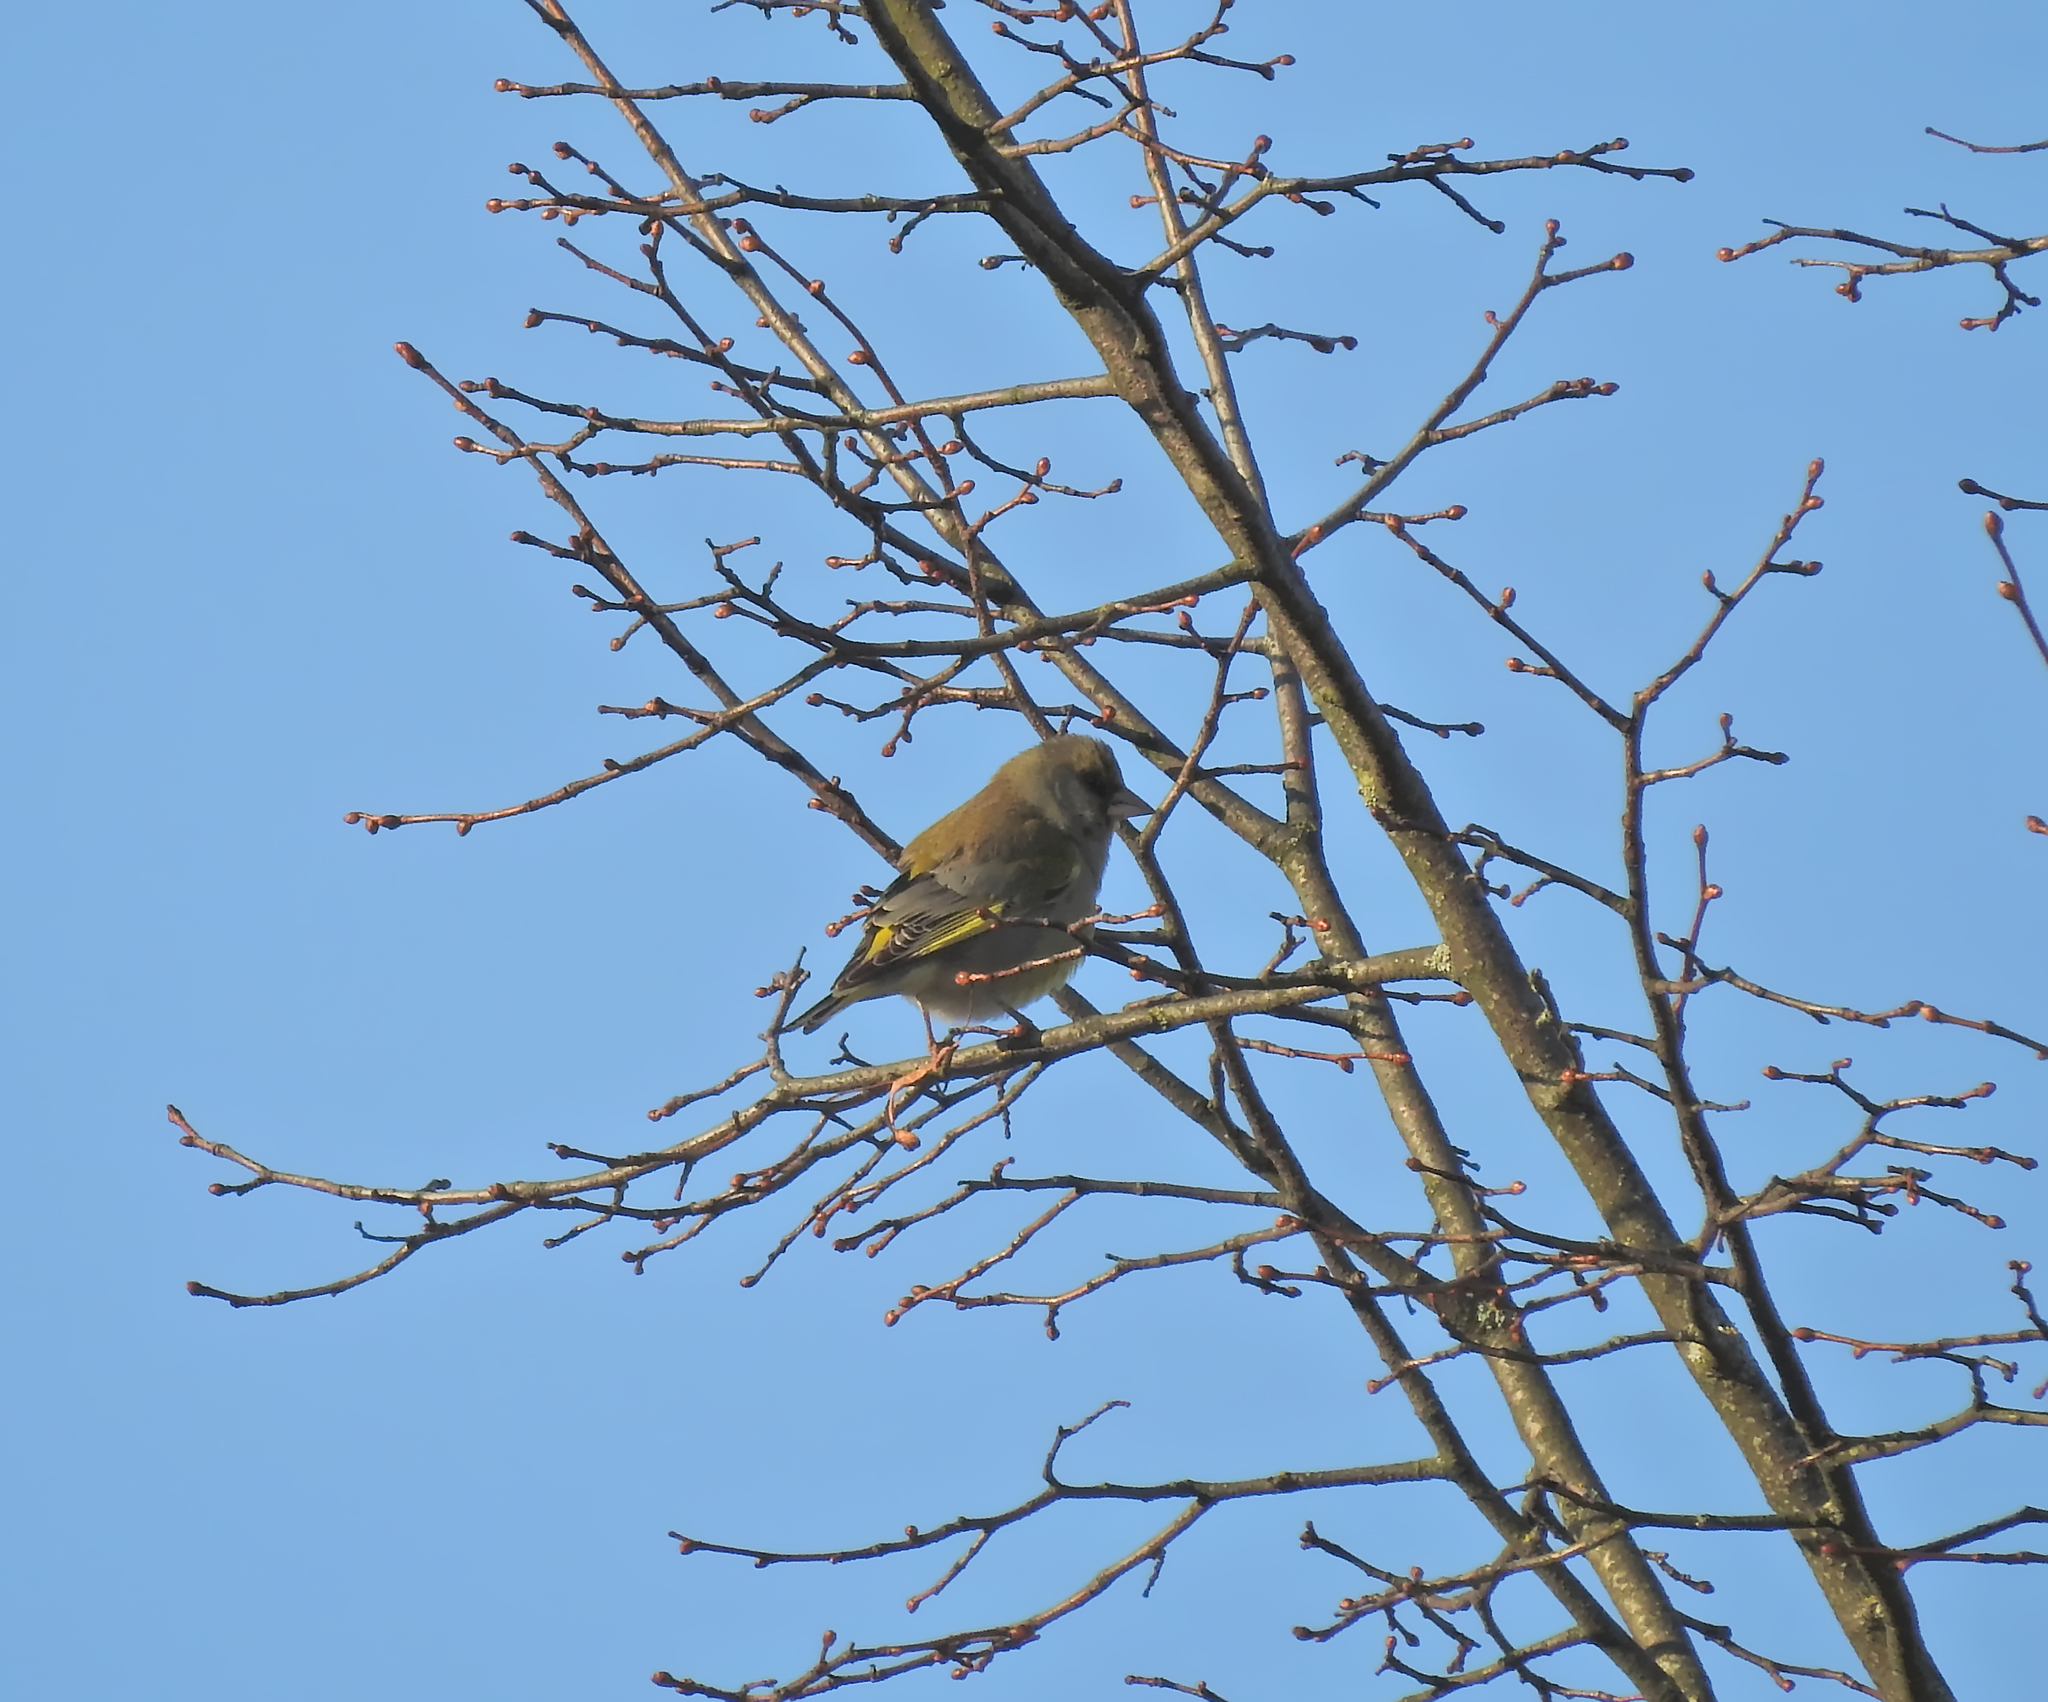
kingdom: Plantae
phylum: Tracheophyta
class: Liliopsida
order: Poales
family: Poaceae
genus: Chloris
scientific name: Chloris chloris
